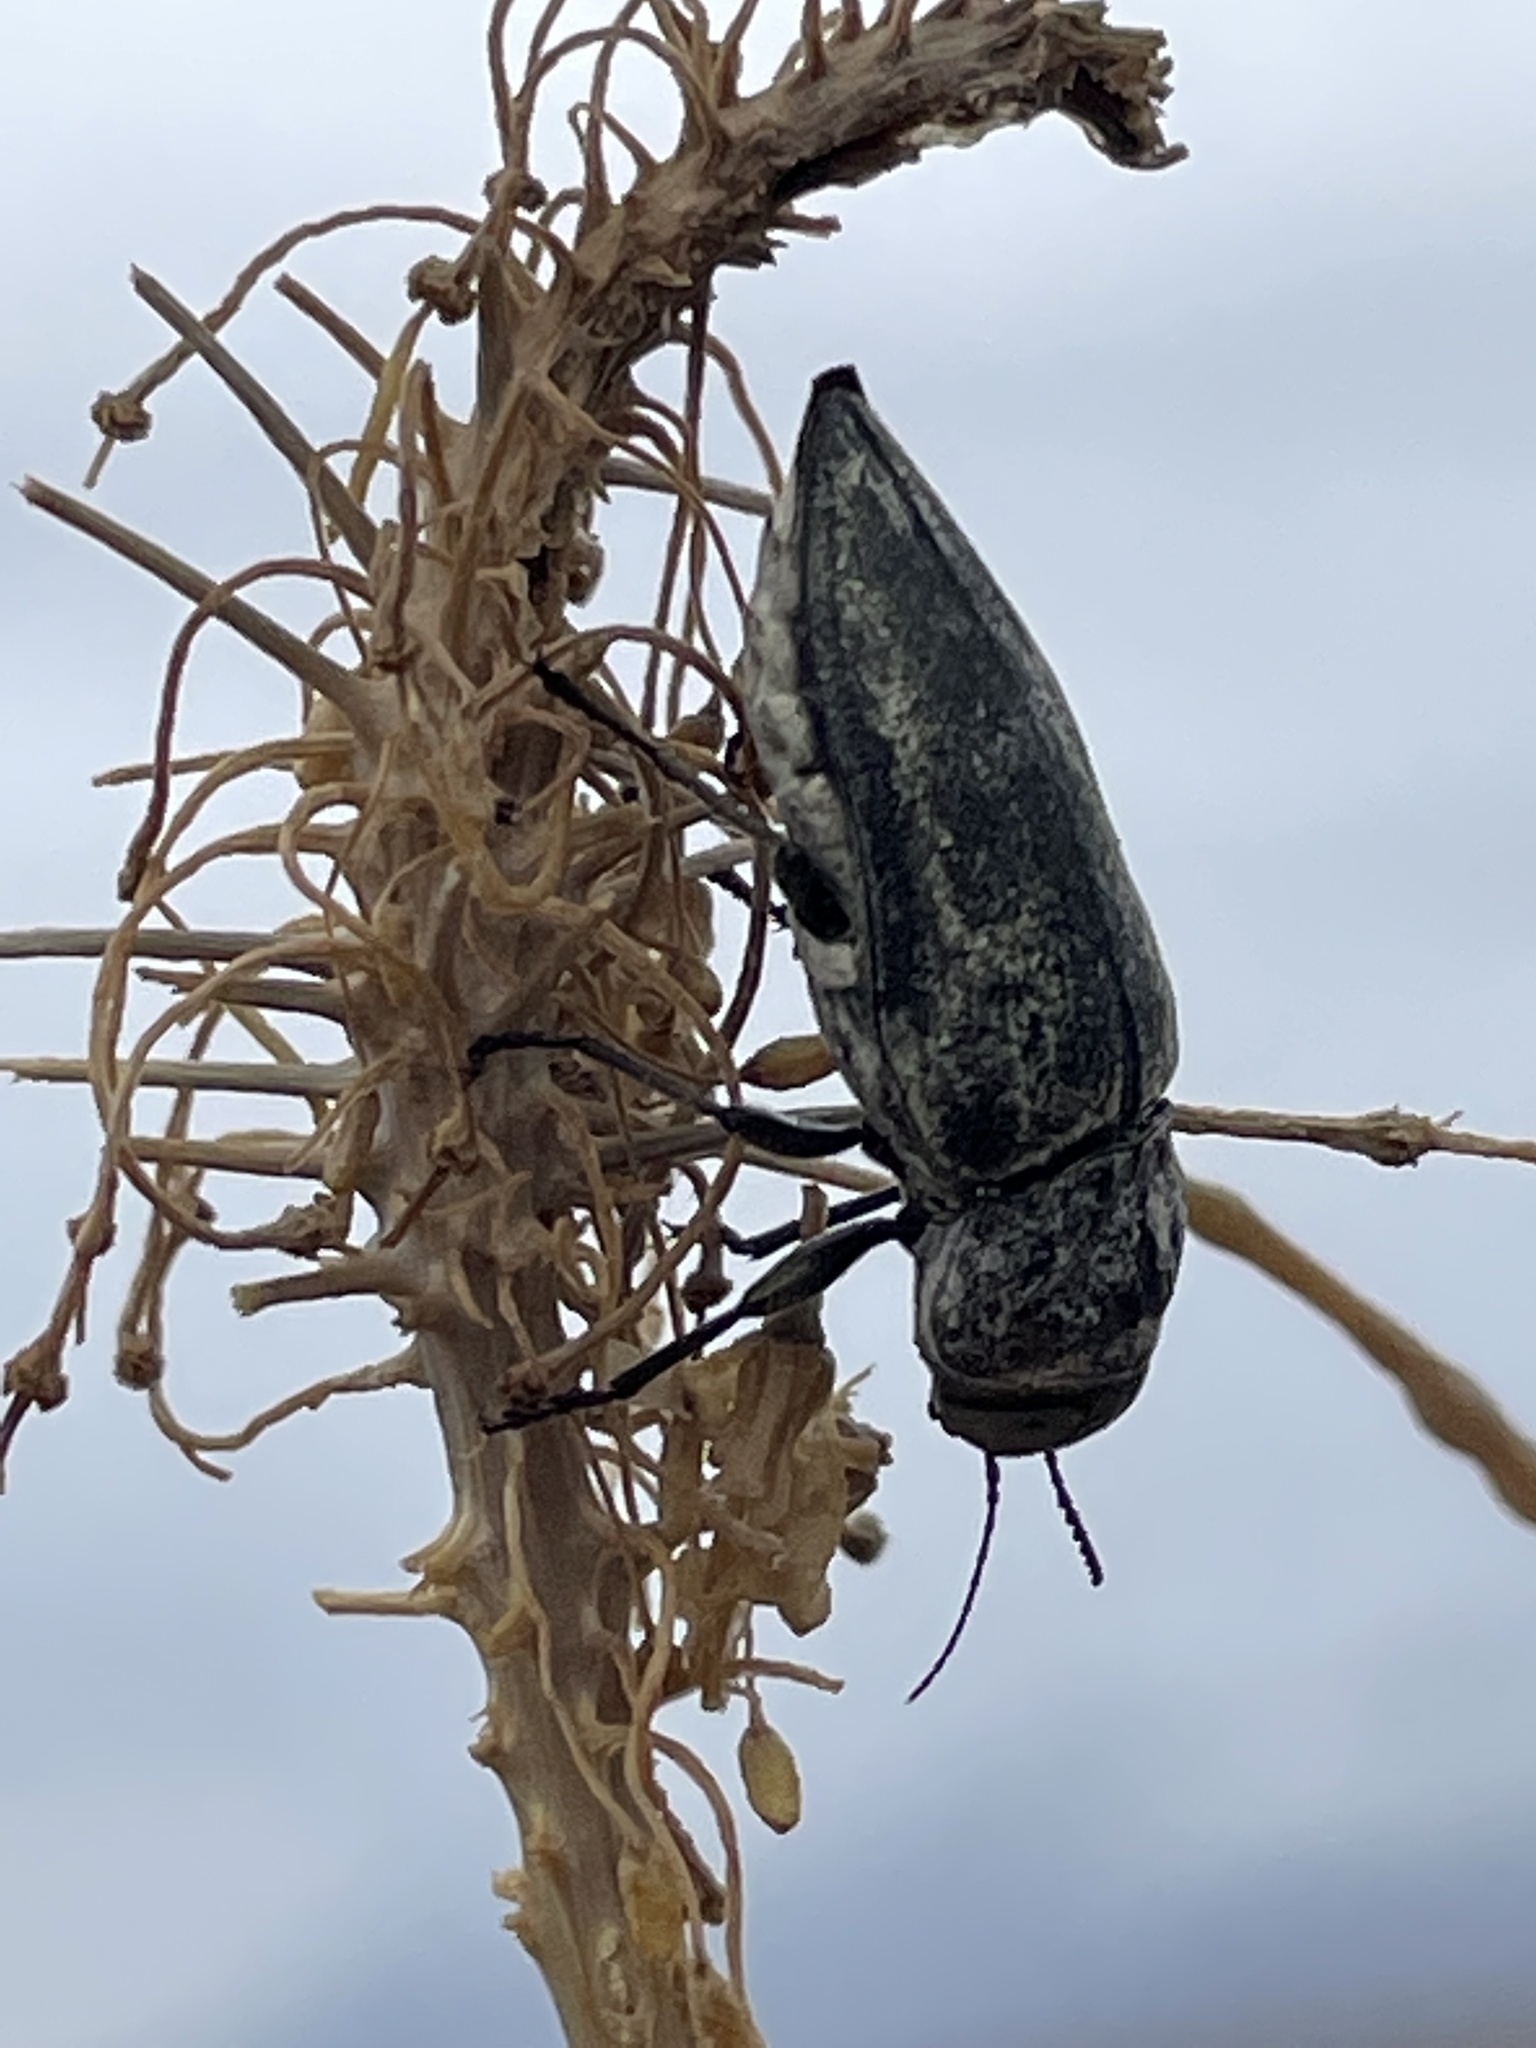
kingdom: Plantae
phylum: Tracheophyta
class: Magnoliopsida
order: Brassicales
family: Brassicaceae
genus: Stanleya
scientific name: Stanleya pinnata
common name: Prince's-plume
